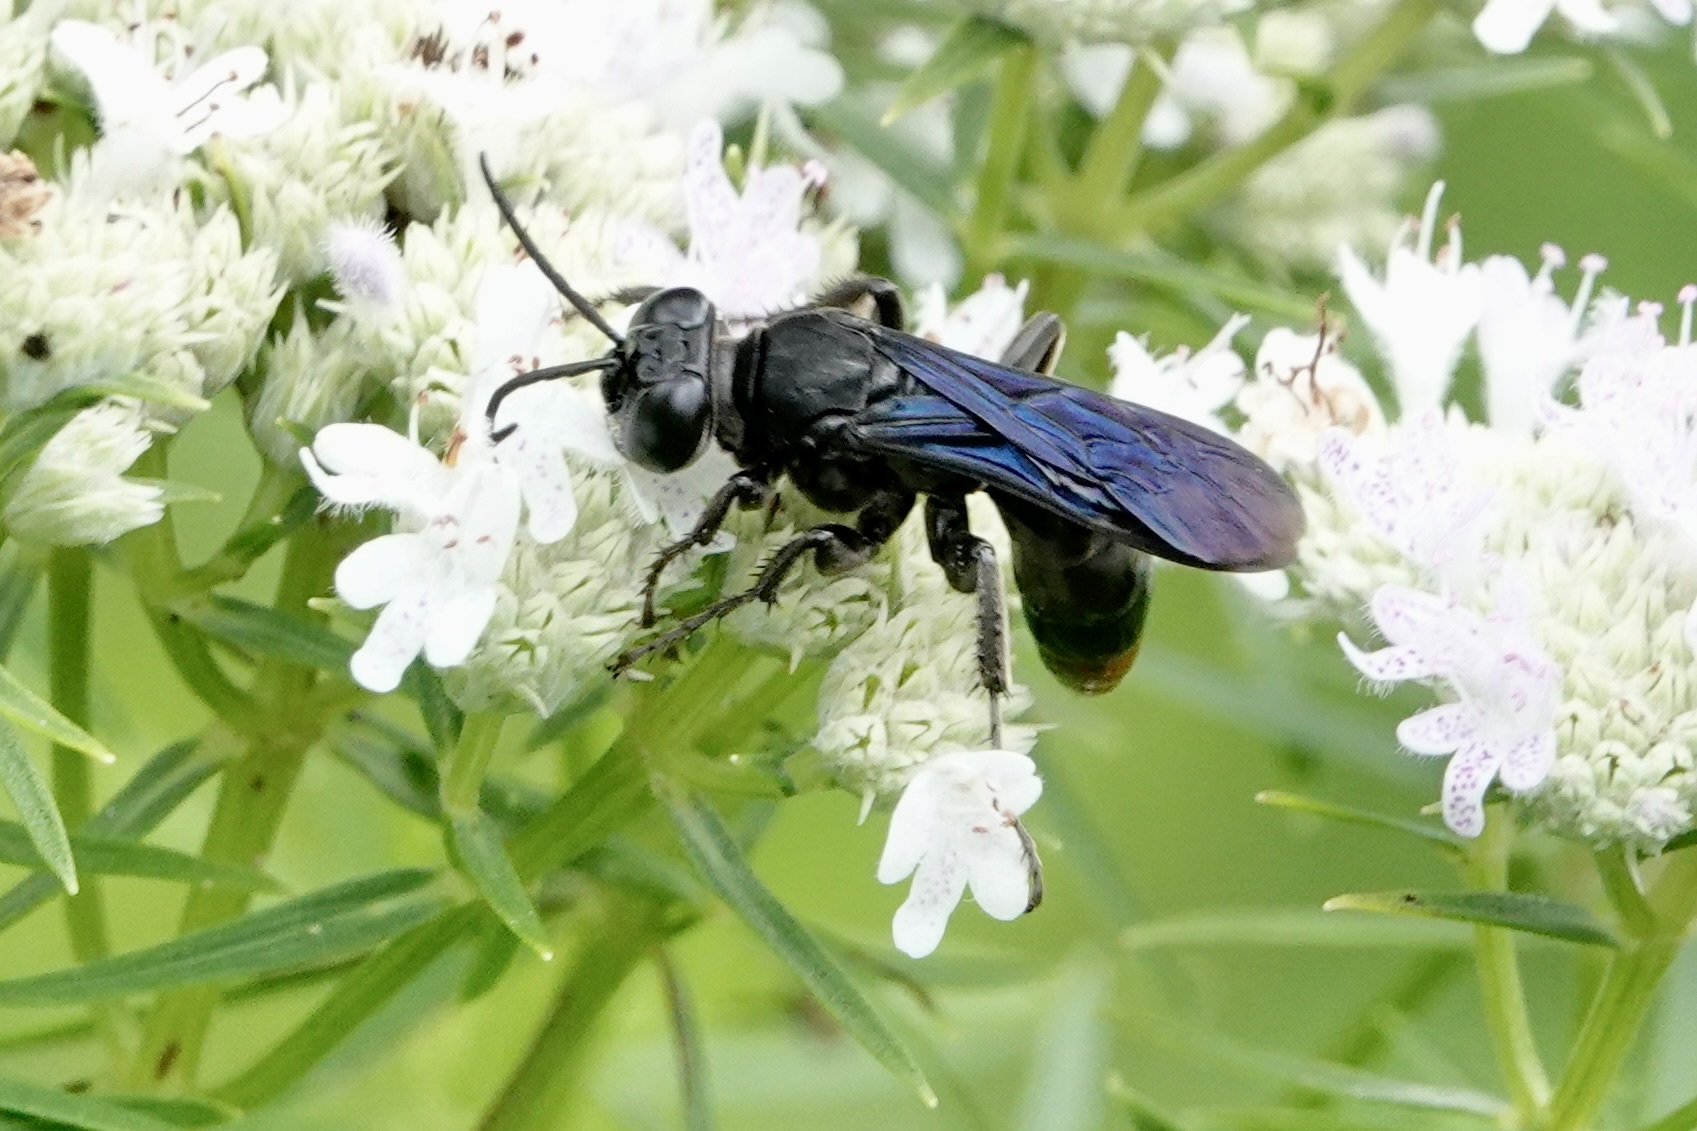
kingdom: Animalia
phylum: Arthropoda
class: Insecta
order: Hymenoptera
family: Crabronidae
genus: Larra
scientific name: Larra analis
